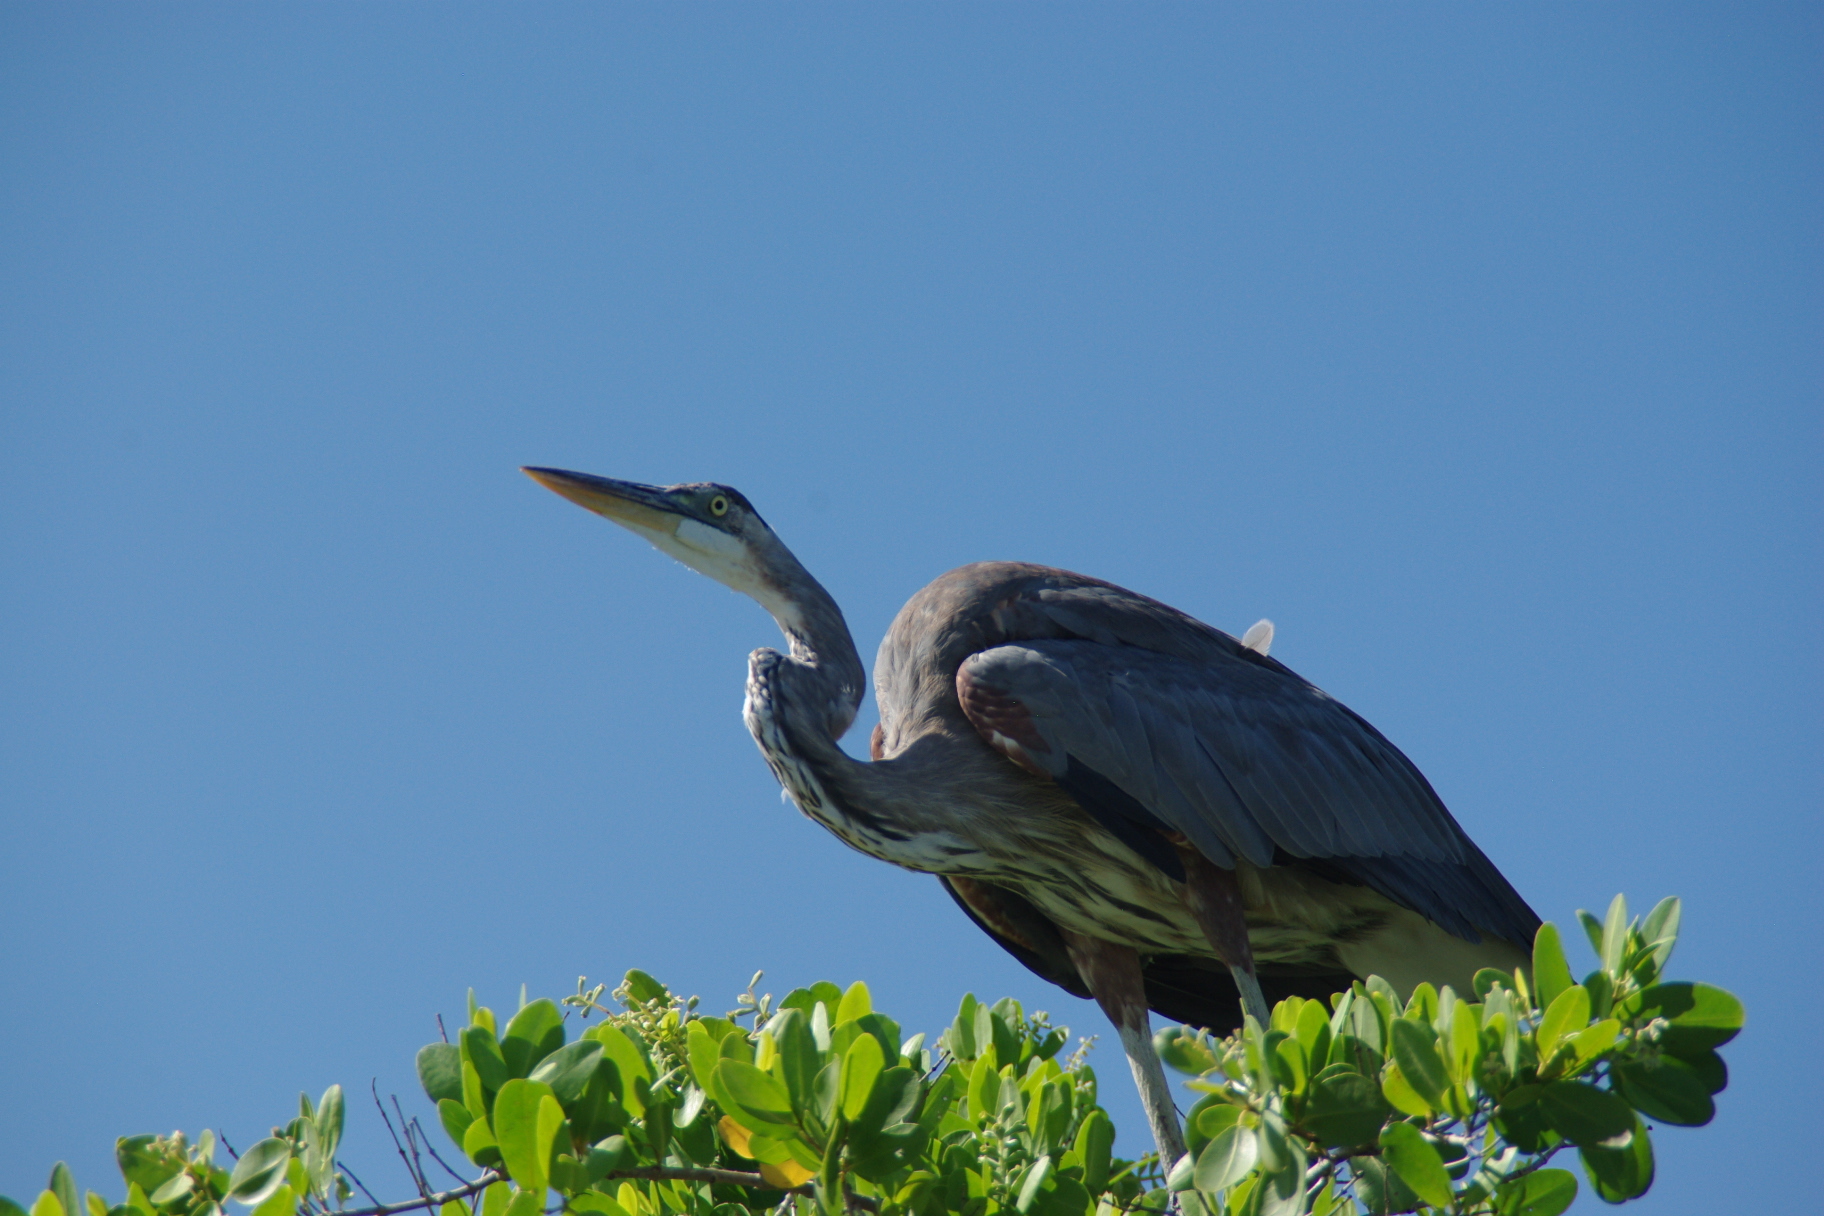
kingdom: Animalia
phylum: Chordata
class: Aves
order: Pelecaniformes
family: Ardeidae
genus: Ardea
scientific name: Ardea herodias
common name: Great blue heron
